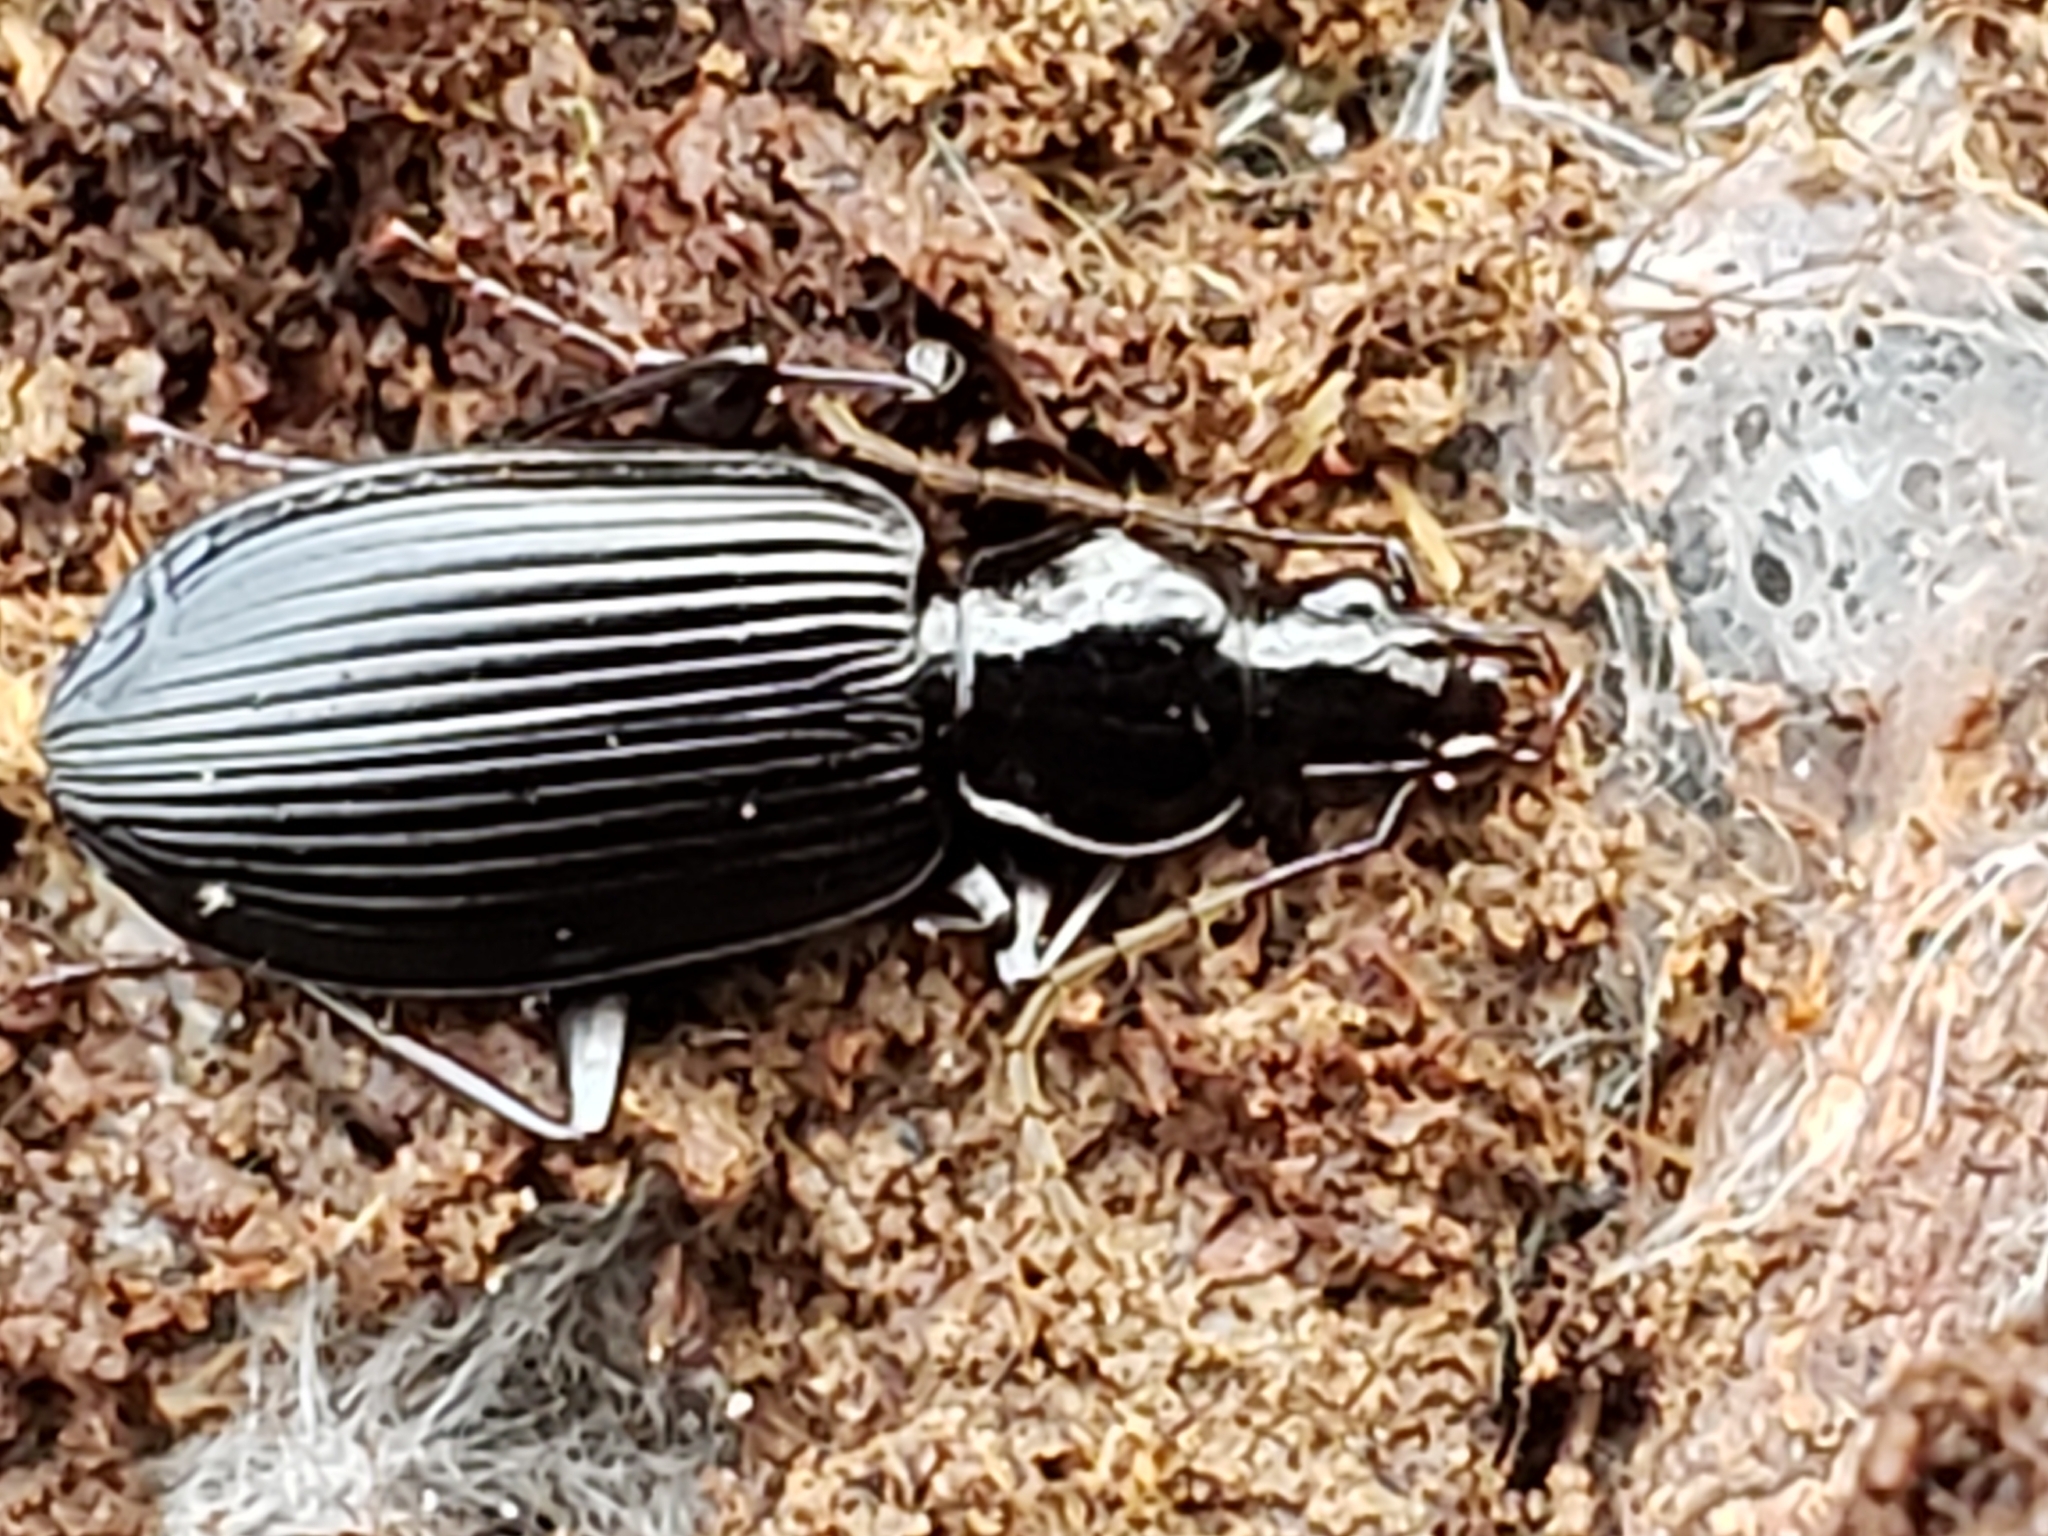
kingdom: Animalia
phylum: Arthropoda
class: Insecta
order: Coleoptera
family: Carabidae
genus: Platynus
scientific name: Platynus decentis
